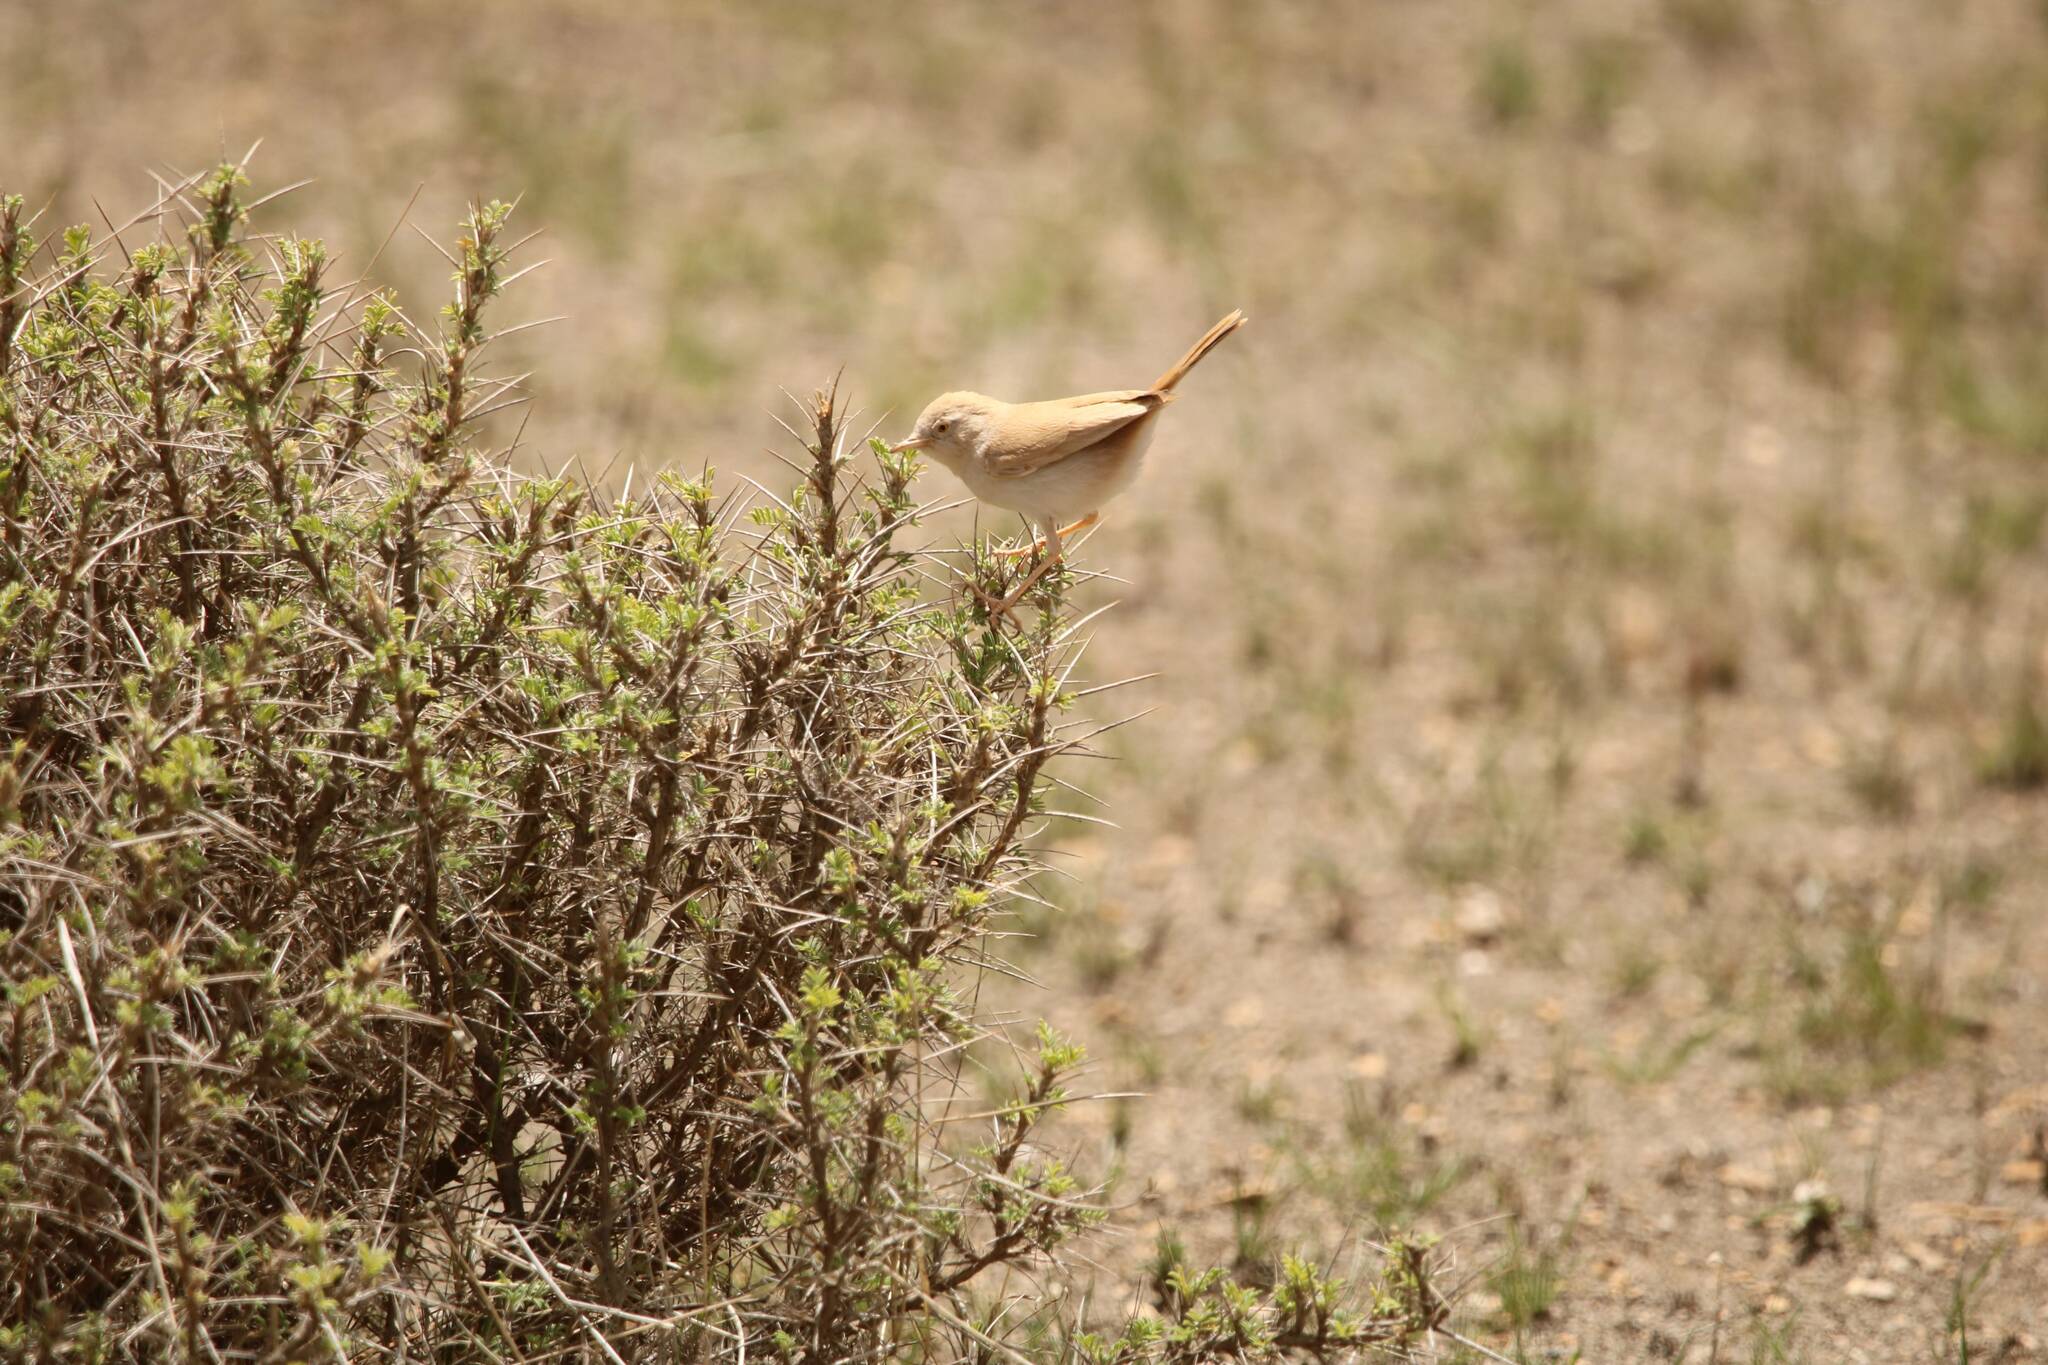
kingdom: Animalia
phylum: Chordata
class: Aves
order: Passeriformes
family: Sylviidae
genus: Sylvia
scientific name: Sylvia deserti
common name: African desert warbler
